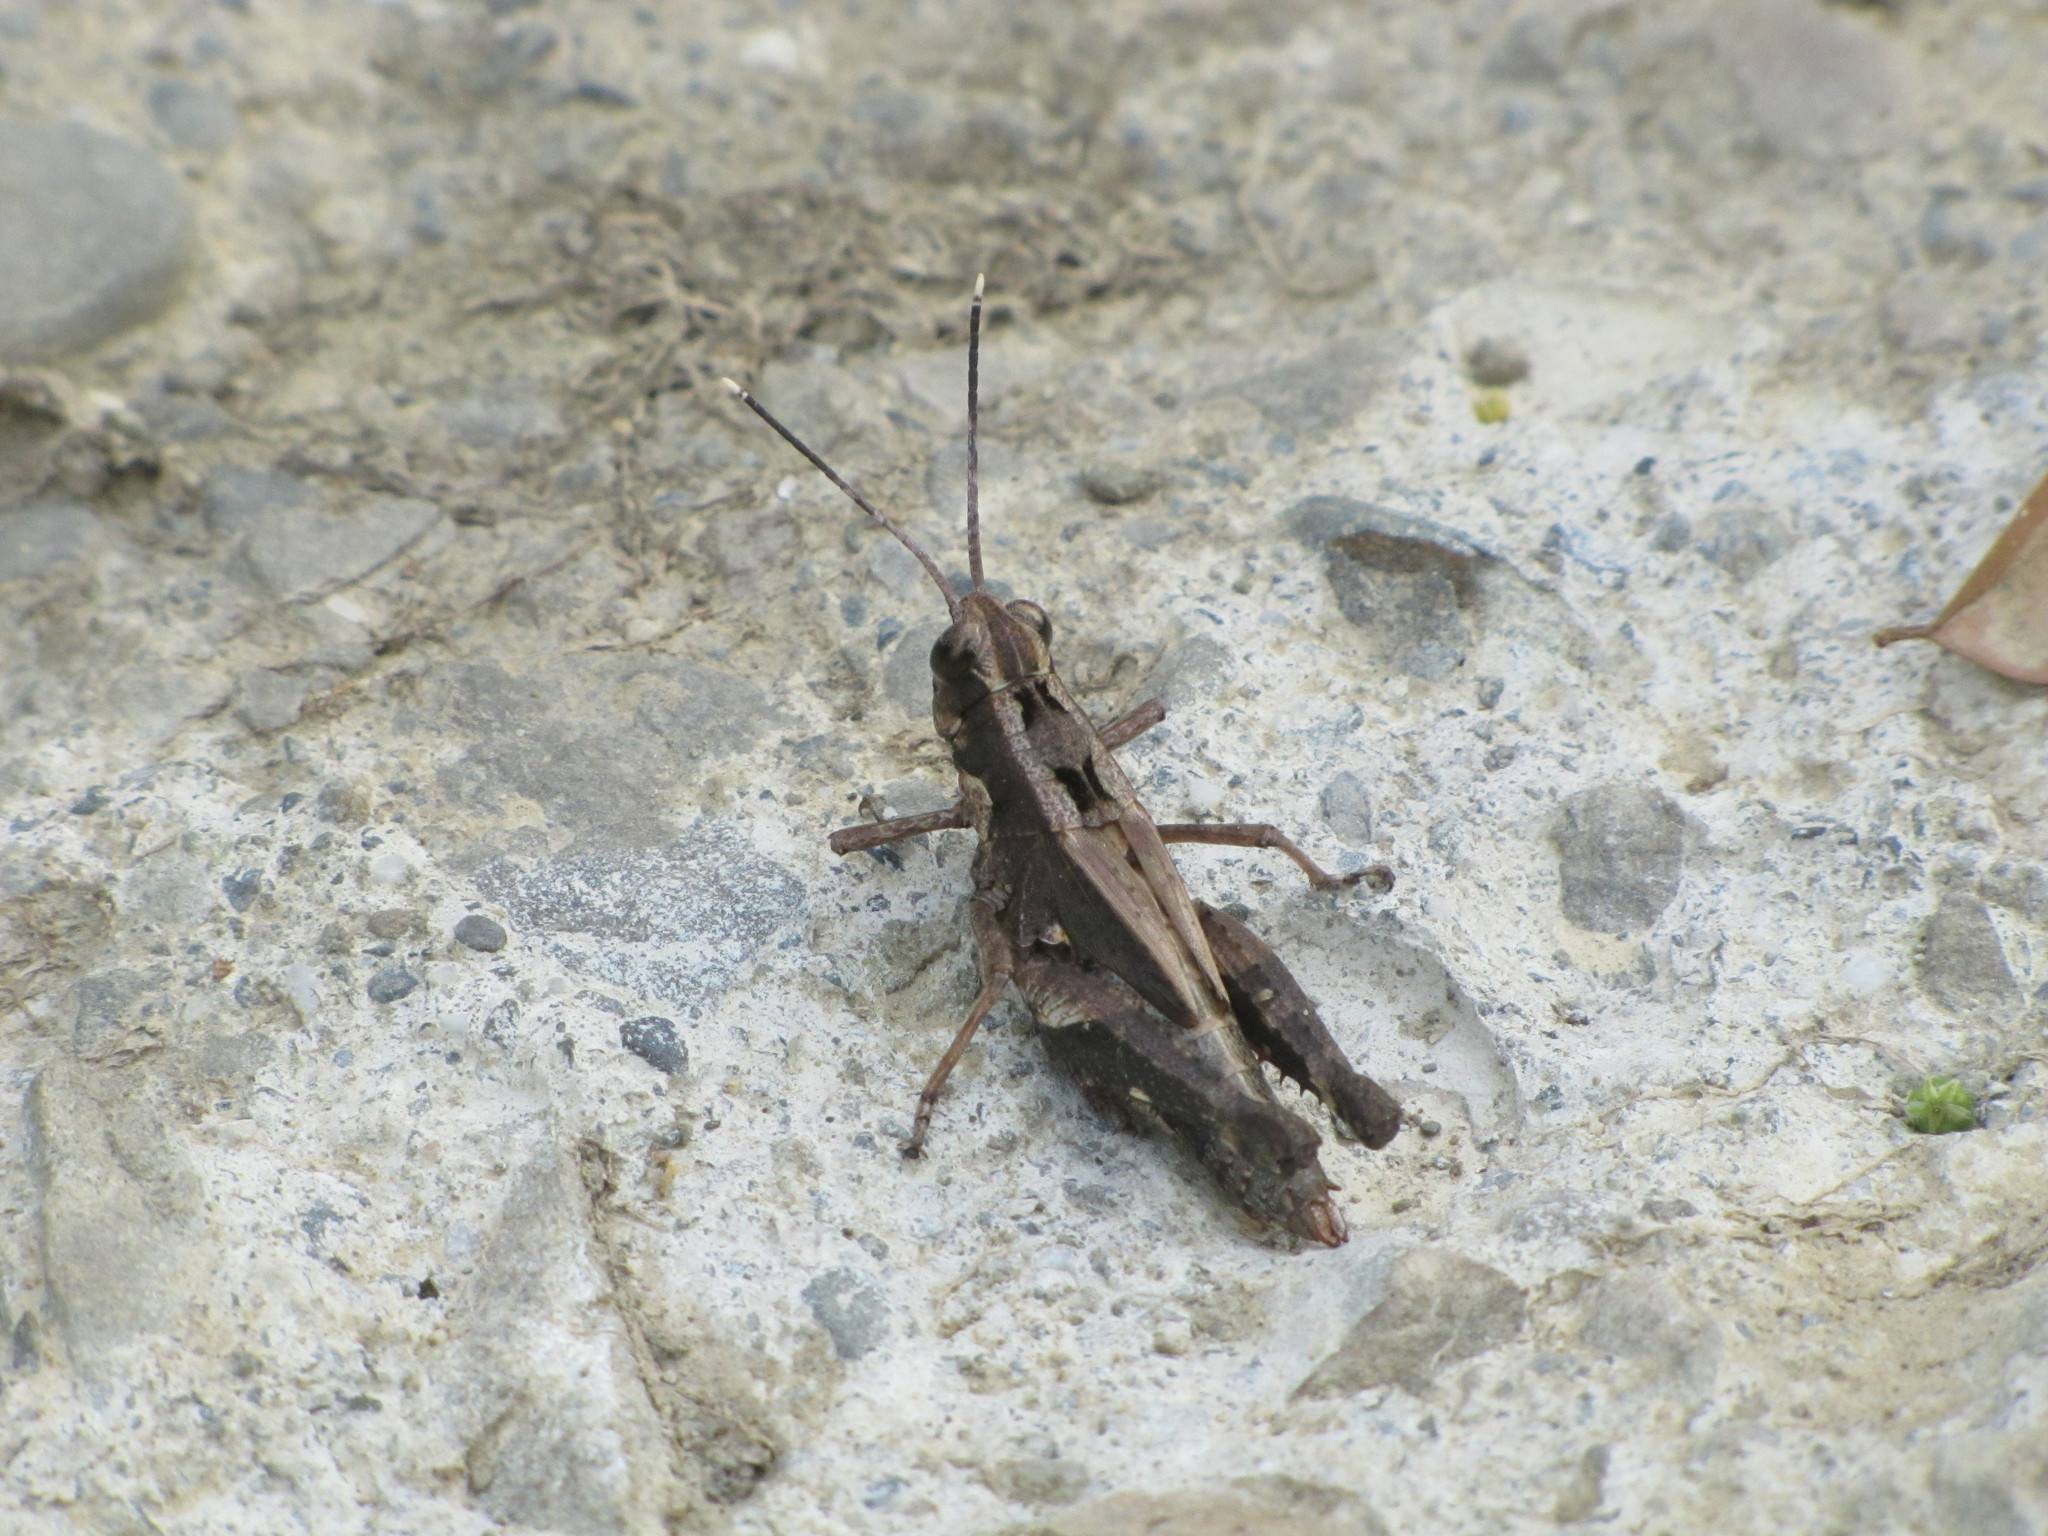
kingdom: Animalia
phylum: Arthropoda
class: Insecta
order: Orthoptera
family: Acrididae
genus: Traulia
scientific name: Traulia ornata
